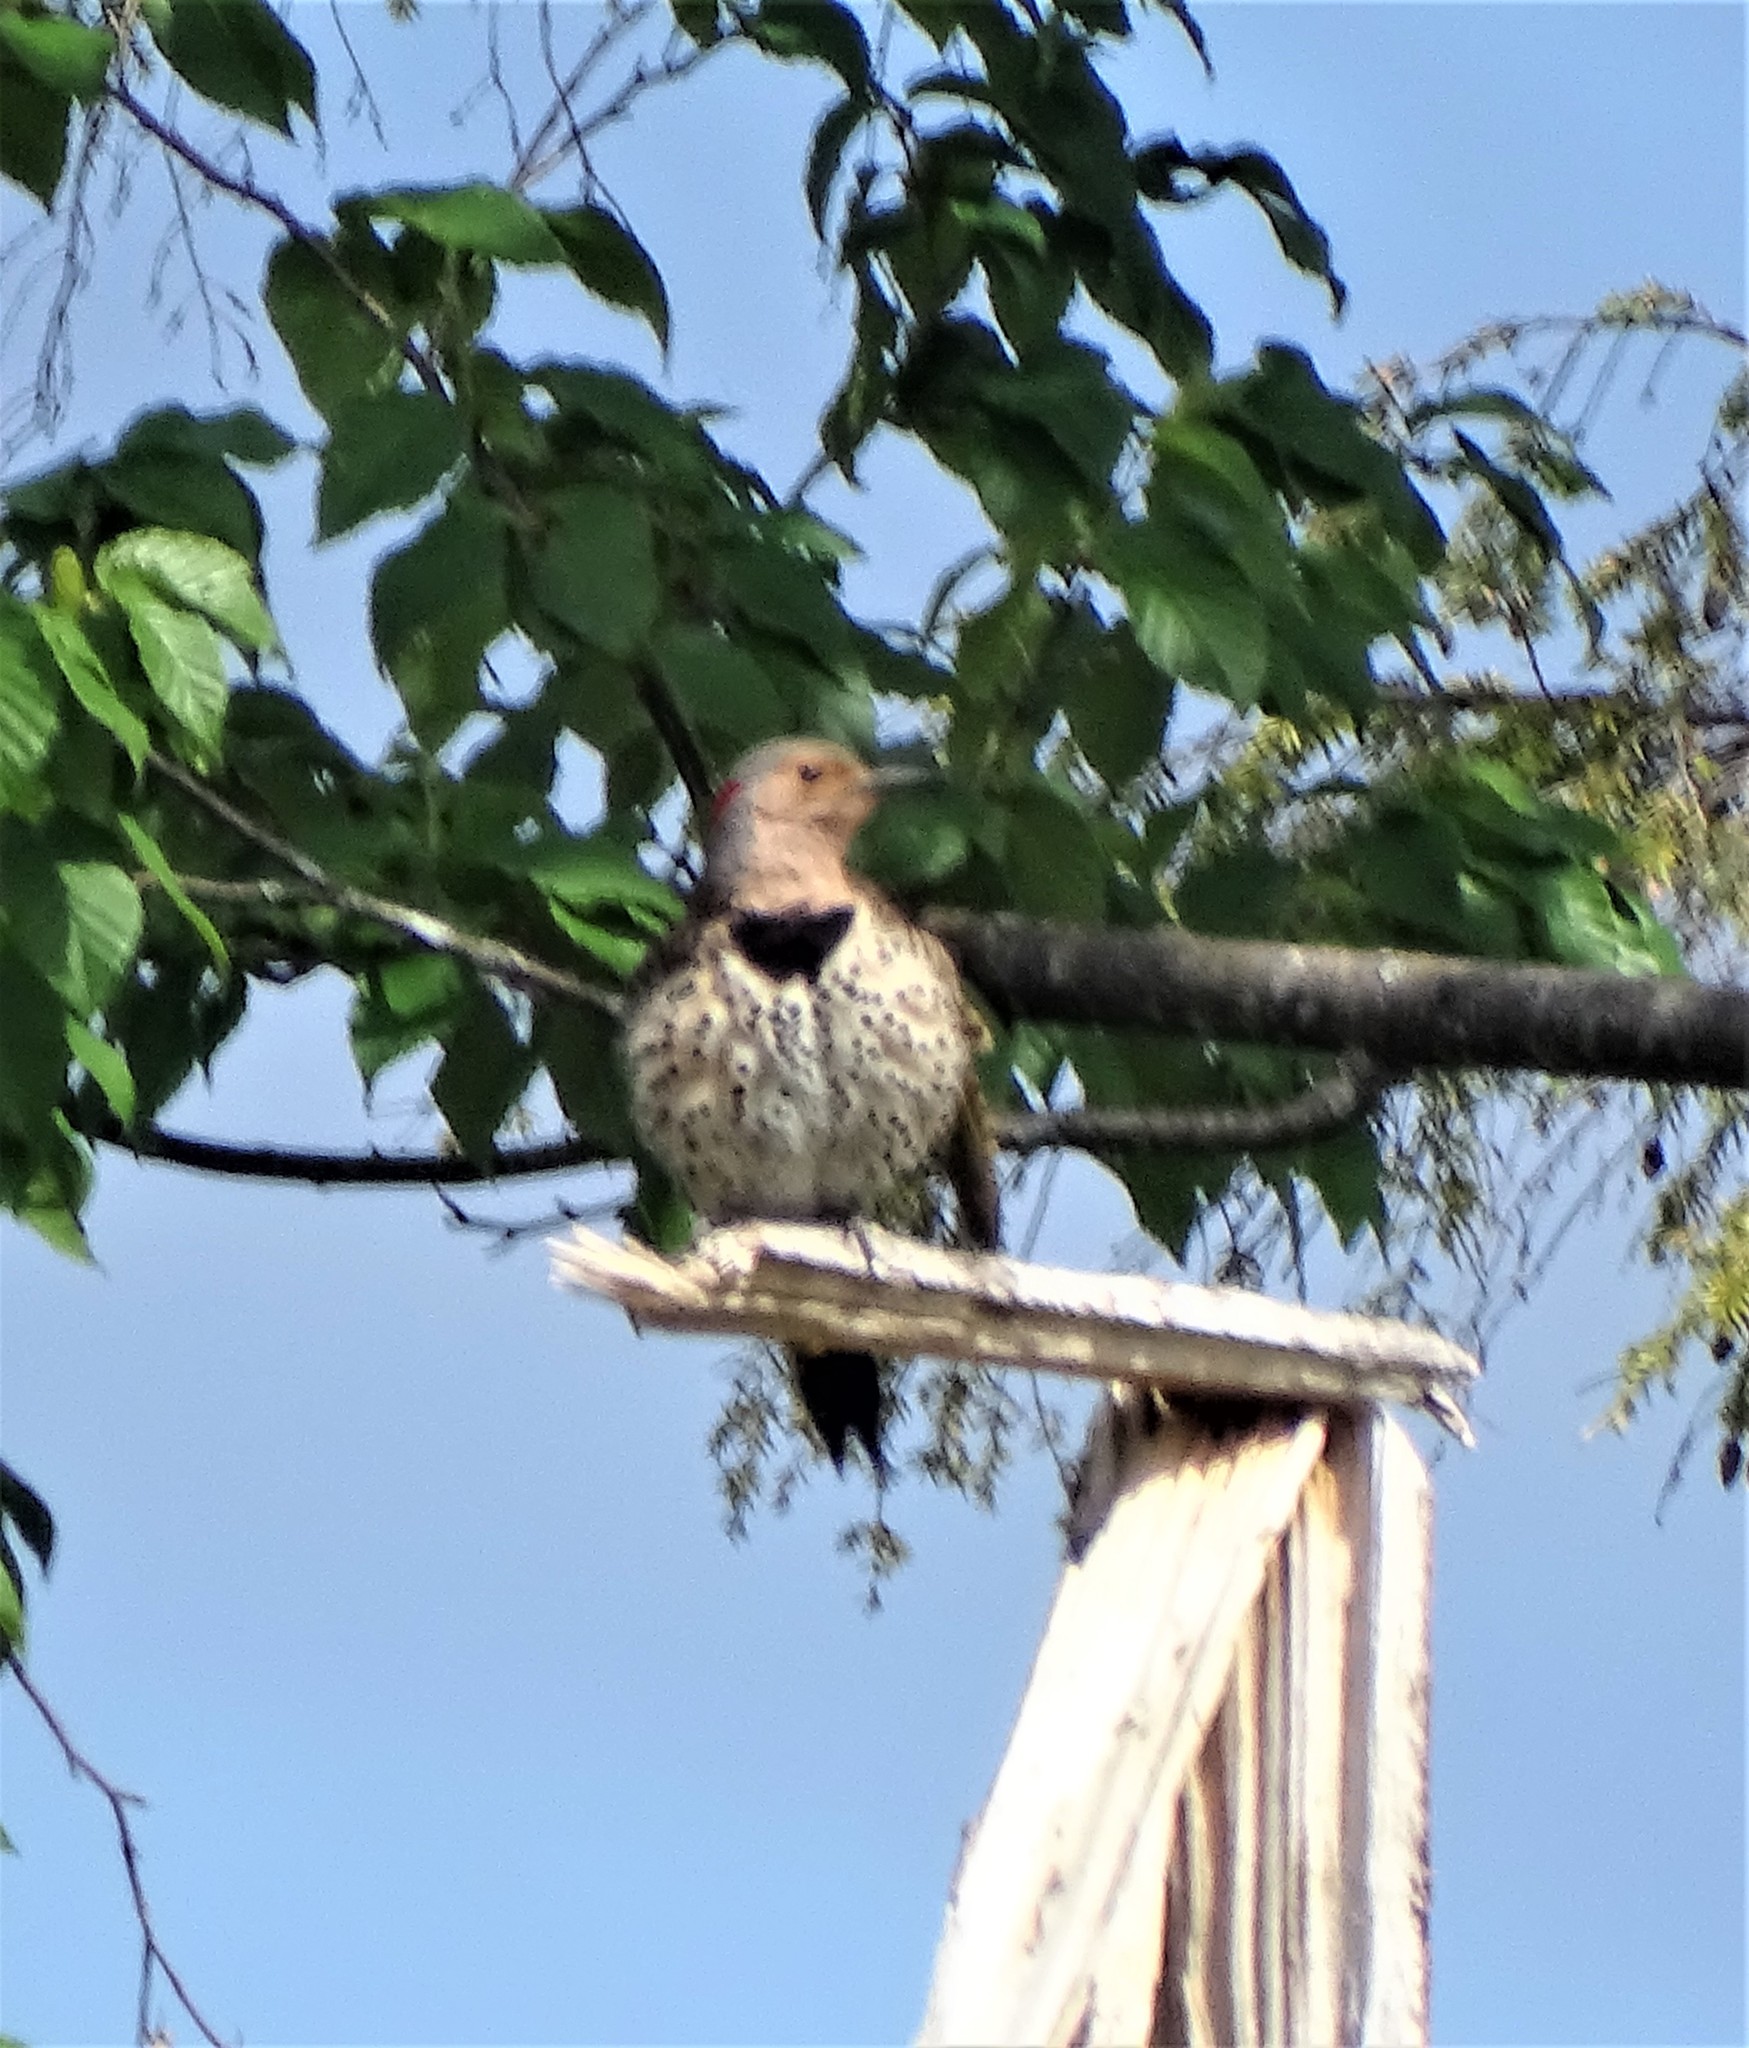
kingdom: Animalia
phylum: Chordata
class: Aves
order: Piciformes
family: Picidae
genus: Colaptes
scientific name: Colaptes auratus
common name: Northern flicker
